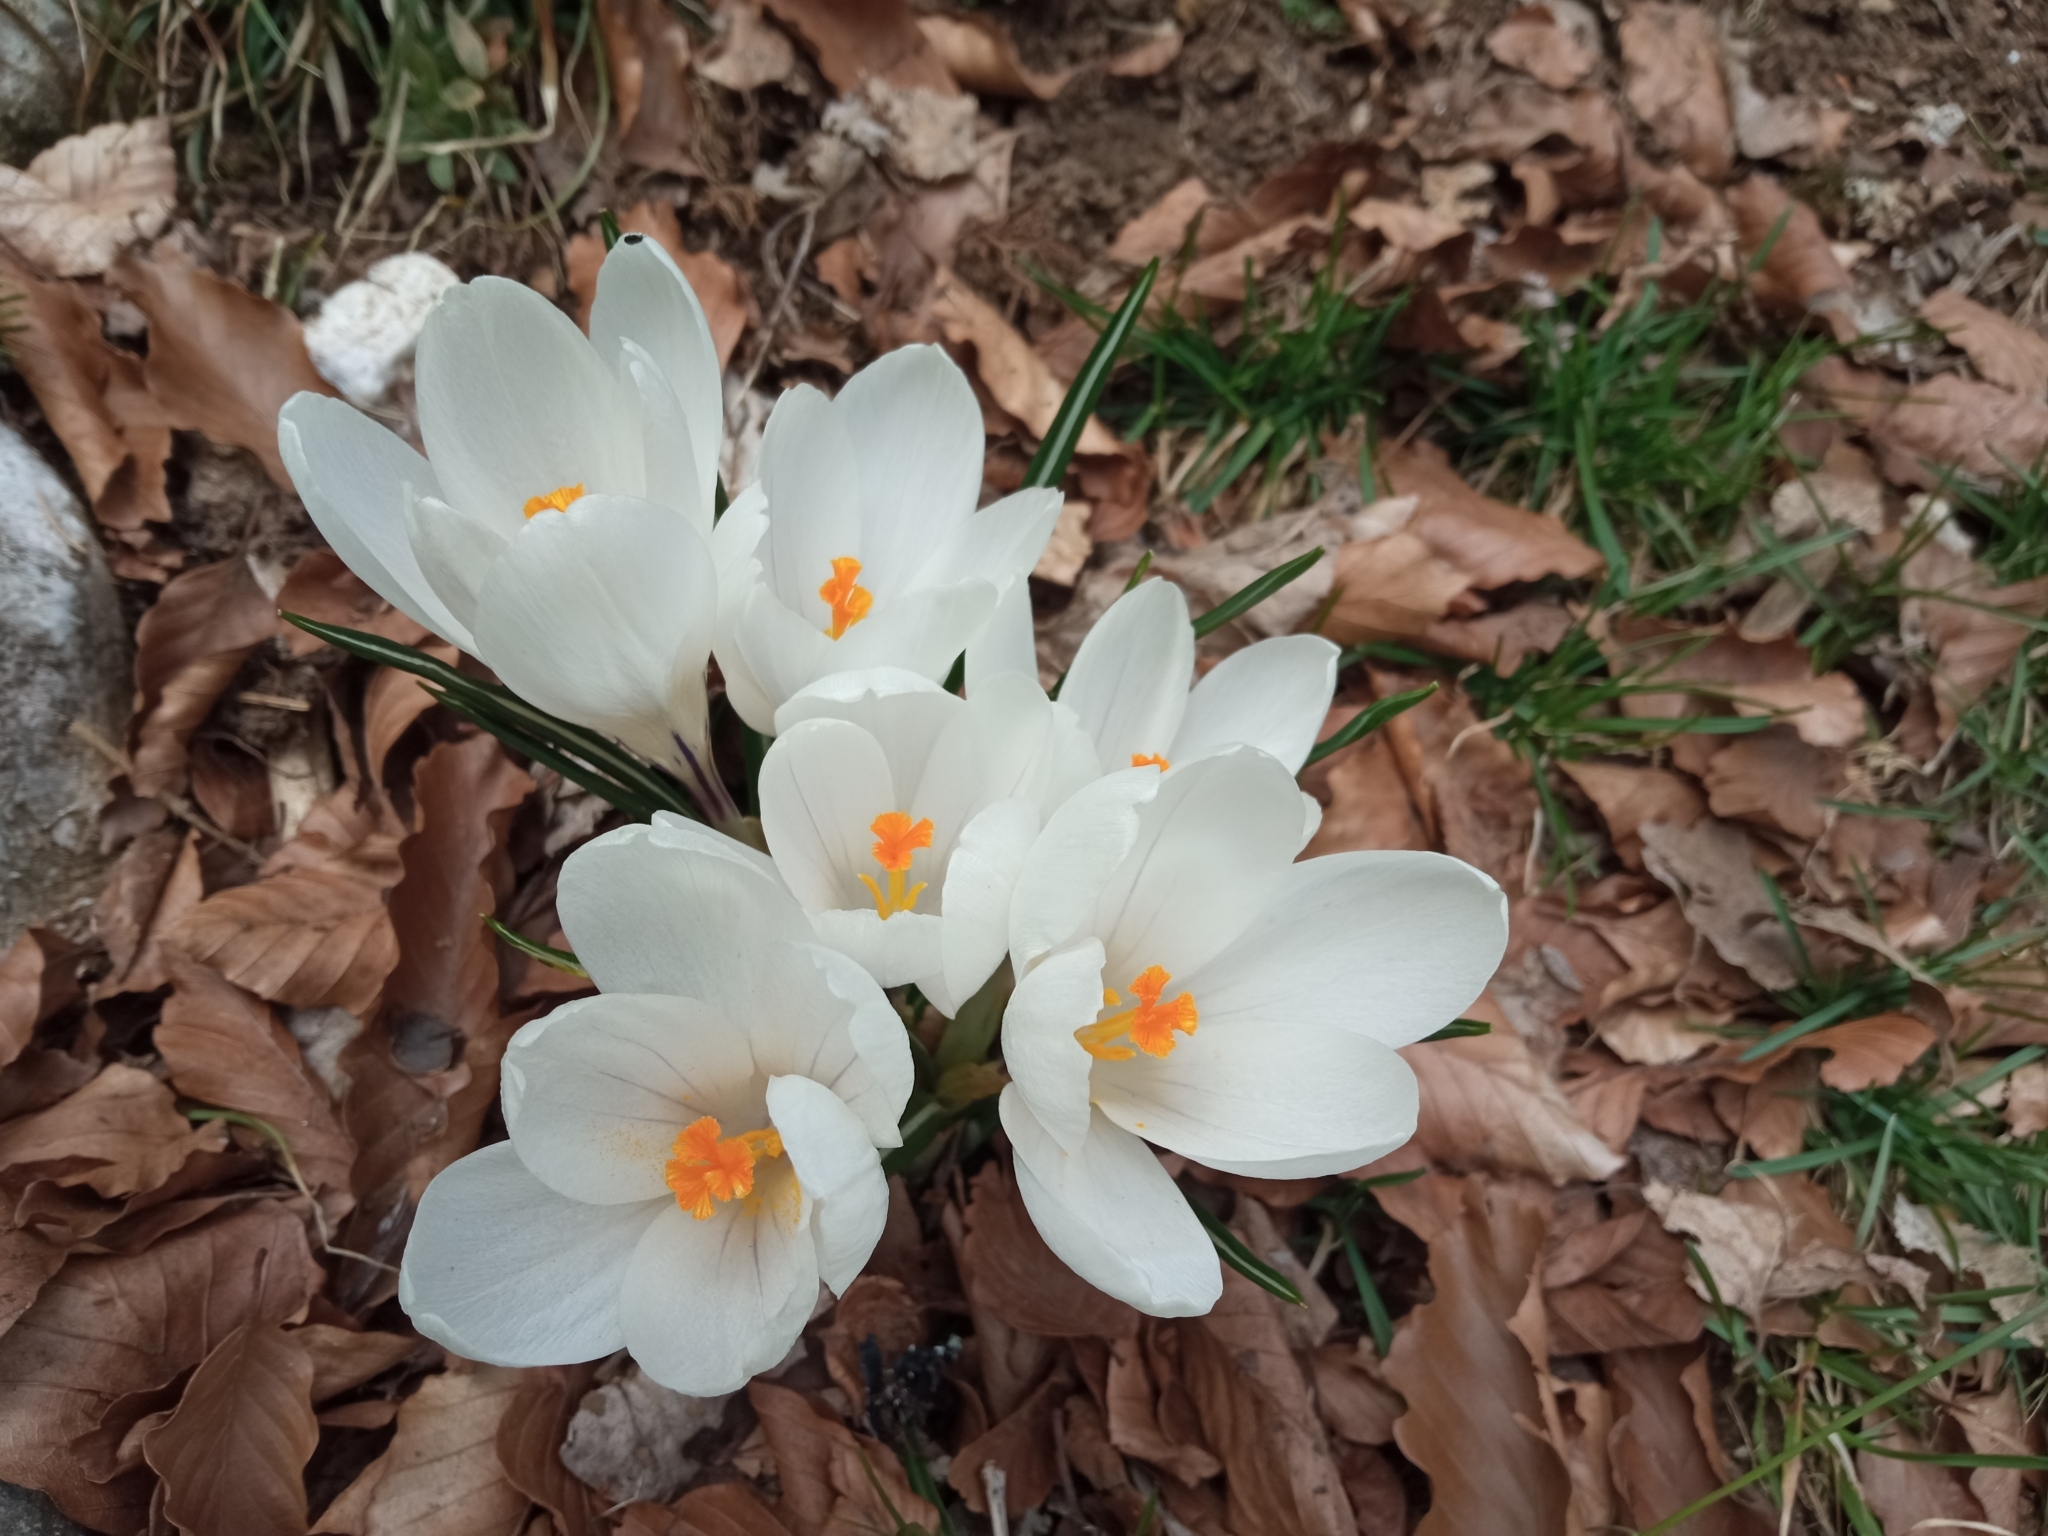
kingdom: Plantae
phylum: Tracheophyta
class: Liliopsida
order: Asparagales
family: Iridaceae
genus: Crocus
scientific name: Crocus vernus
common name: Spring crocus
